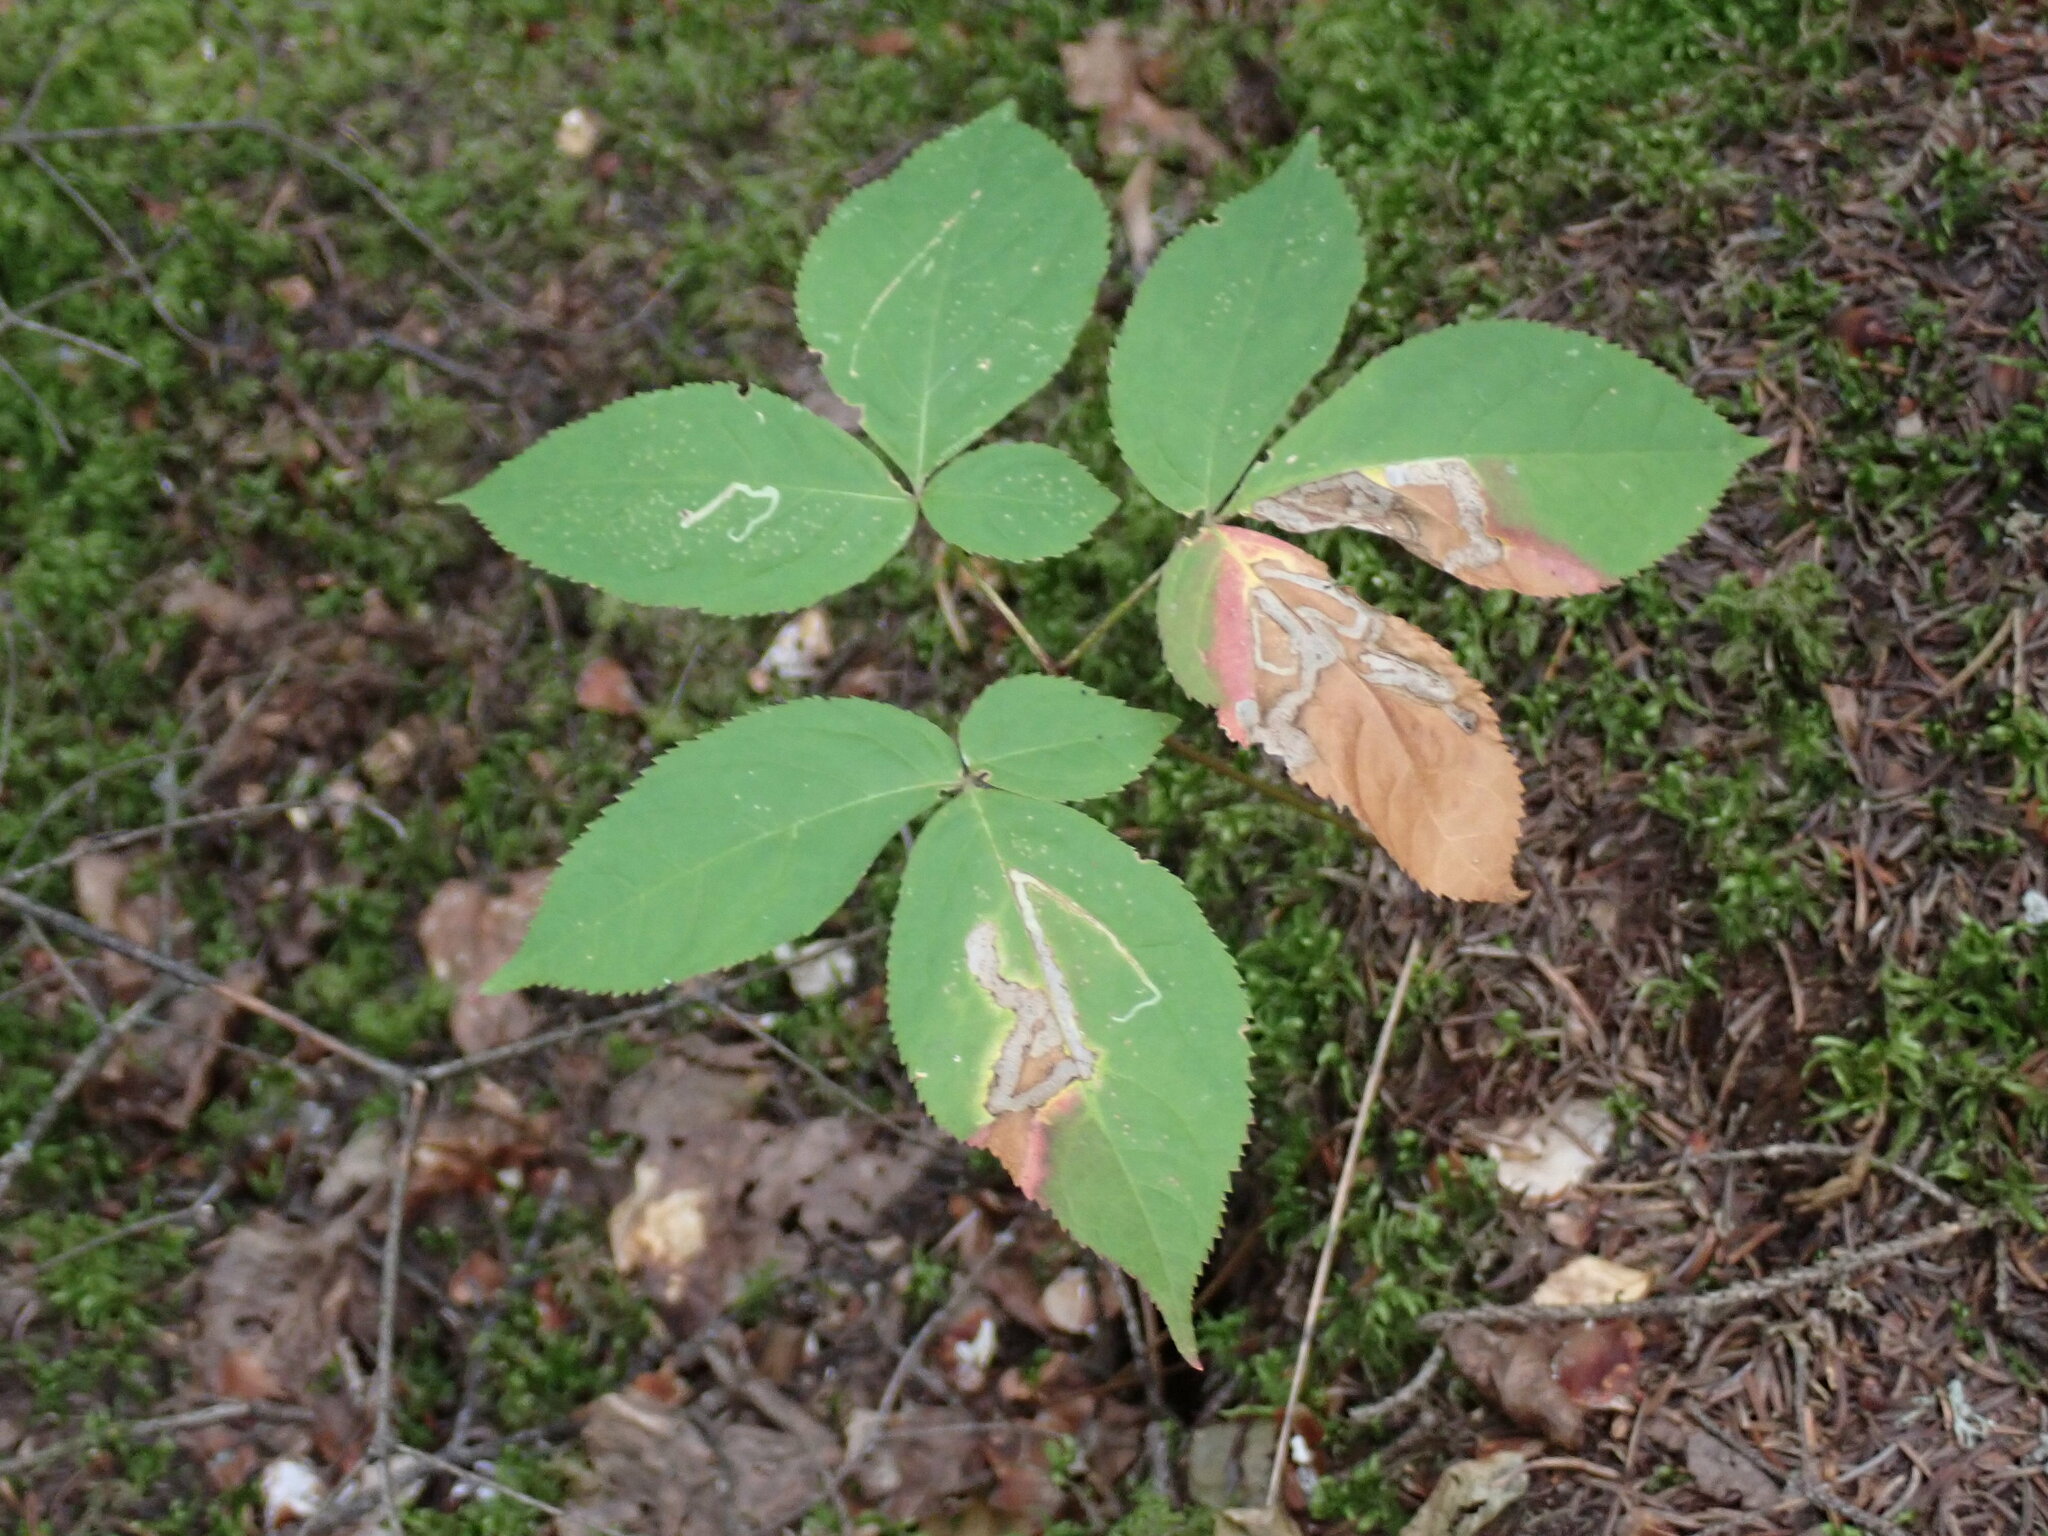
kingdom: Plantae
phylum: Tracheophyta
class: Magnoliopsida
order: Apiales
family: Araliaceae
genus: Aralia
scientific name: Aralia nudicaulis
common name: Wild sarsaparilla
